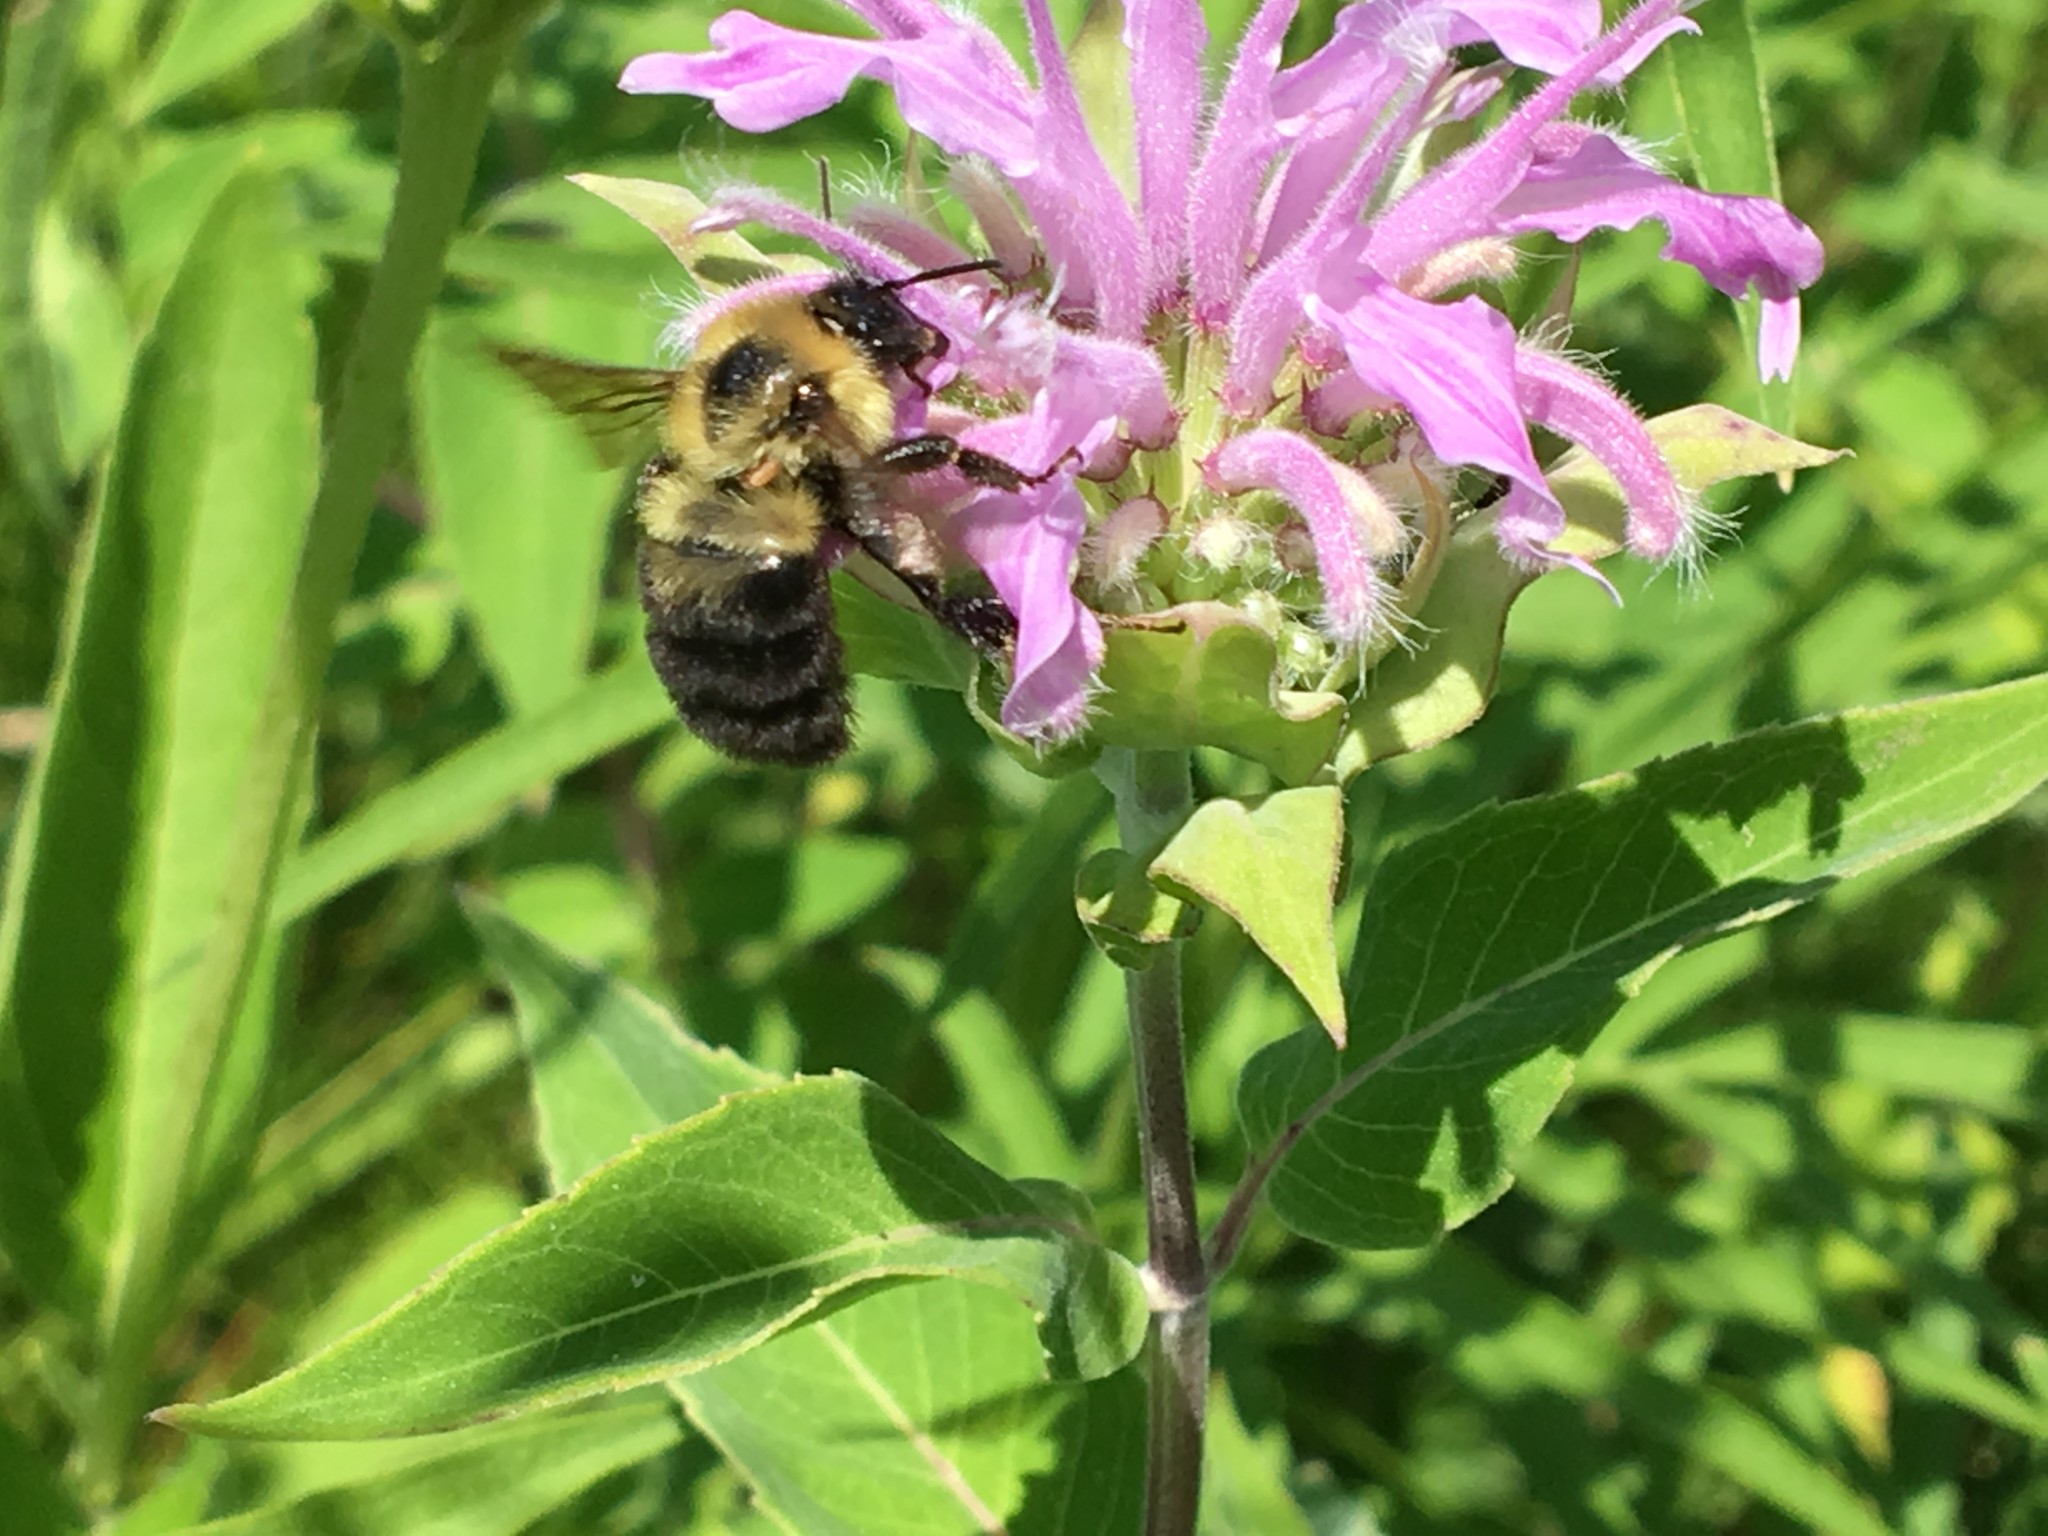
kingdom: Animalia
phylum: Arthropoda
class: Insecta
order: Hymenoptera
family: Apidae
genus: Bombus
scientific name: Bombus bimaculatus
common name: Two-spotted bumble bee
